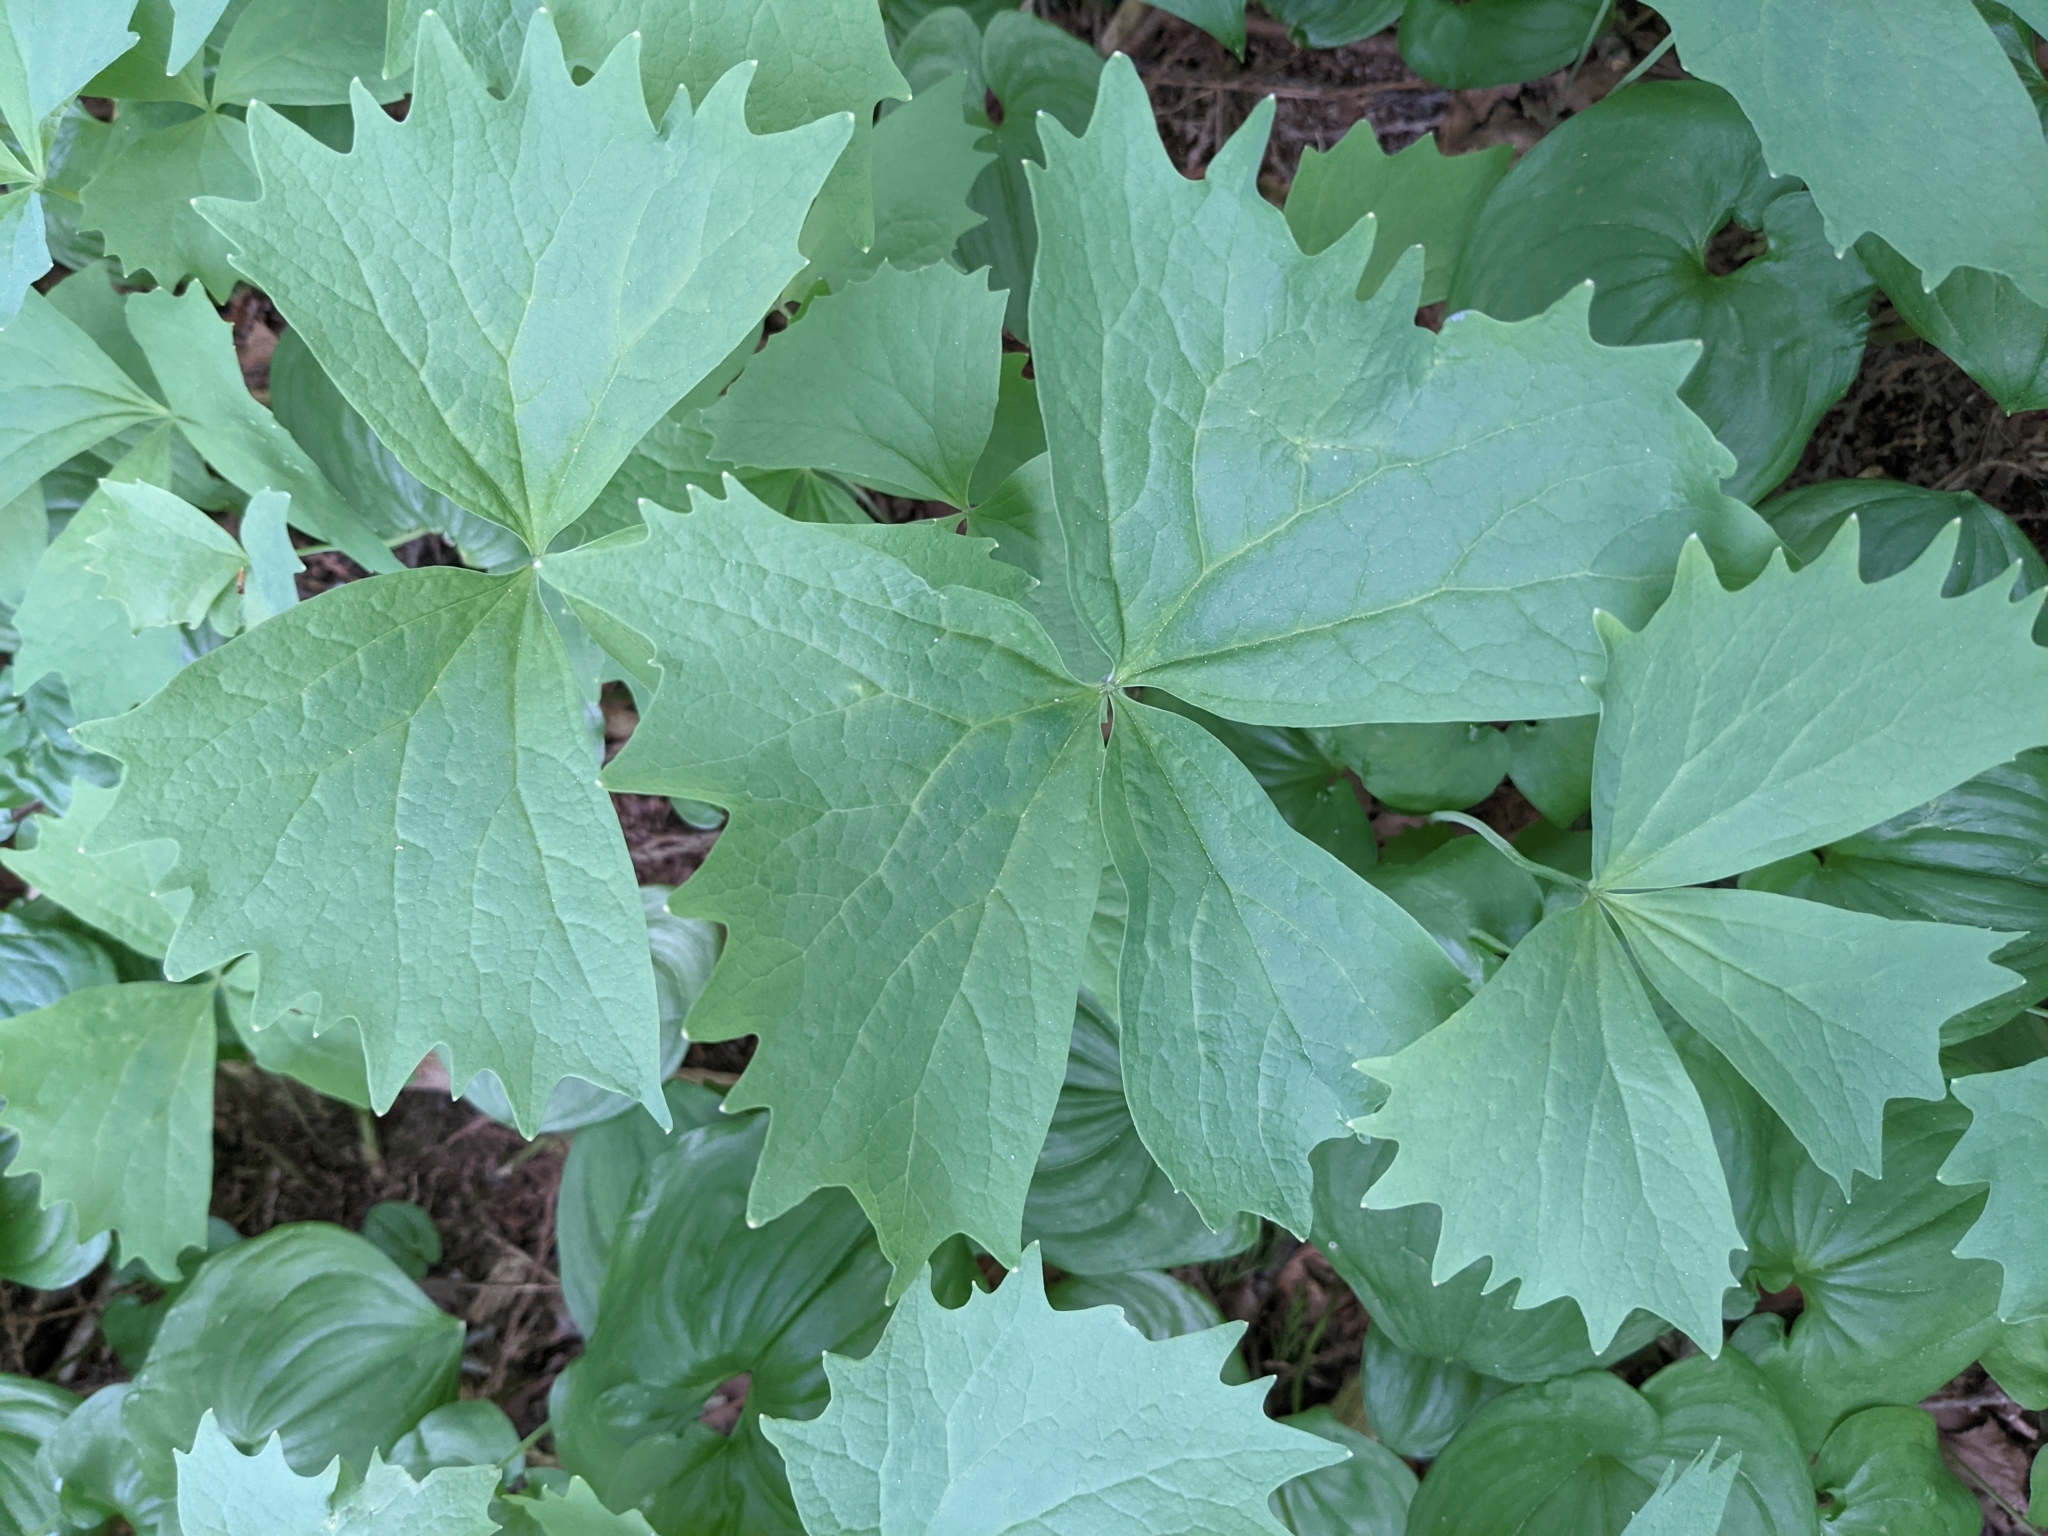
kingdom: Plantae
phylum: Tracheophyta
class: Magnoliopsida
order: Ranunculales
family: Berberidaceae
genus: Achlys
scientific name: Achlys triphylla
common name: Vanilla-leaf
